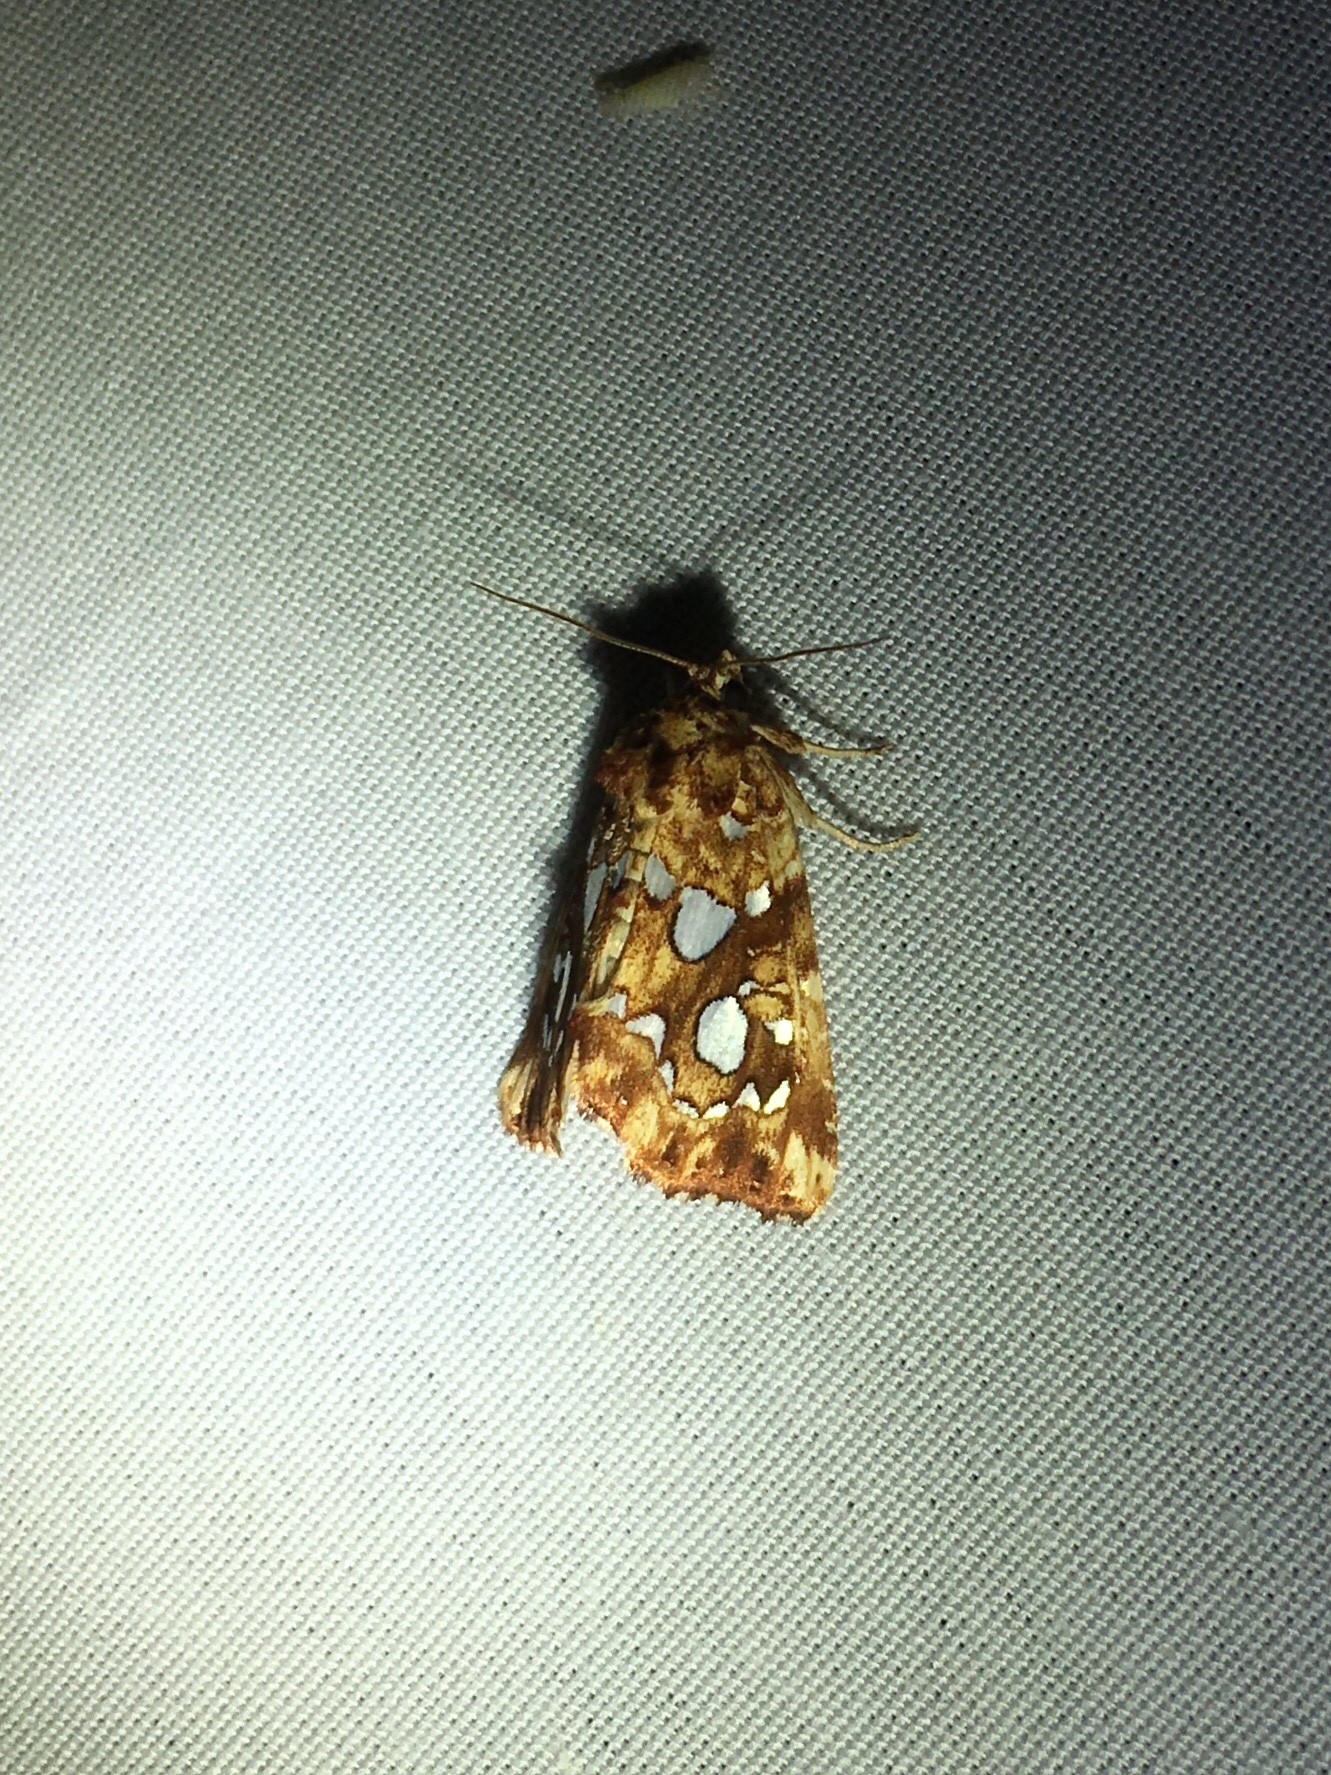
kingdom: Animalia
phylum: Arthropoda
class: Insecta
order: Lepidoptera
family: Noctuidae
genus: Callopistria
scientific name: Callopistria cordata
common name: Silver-spotted fern moth
